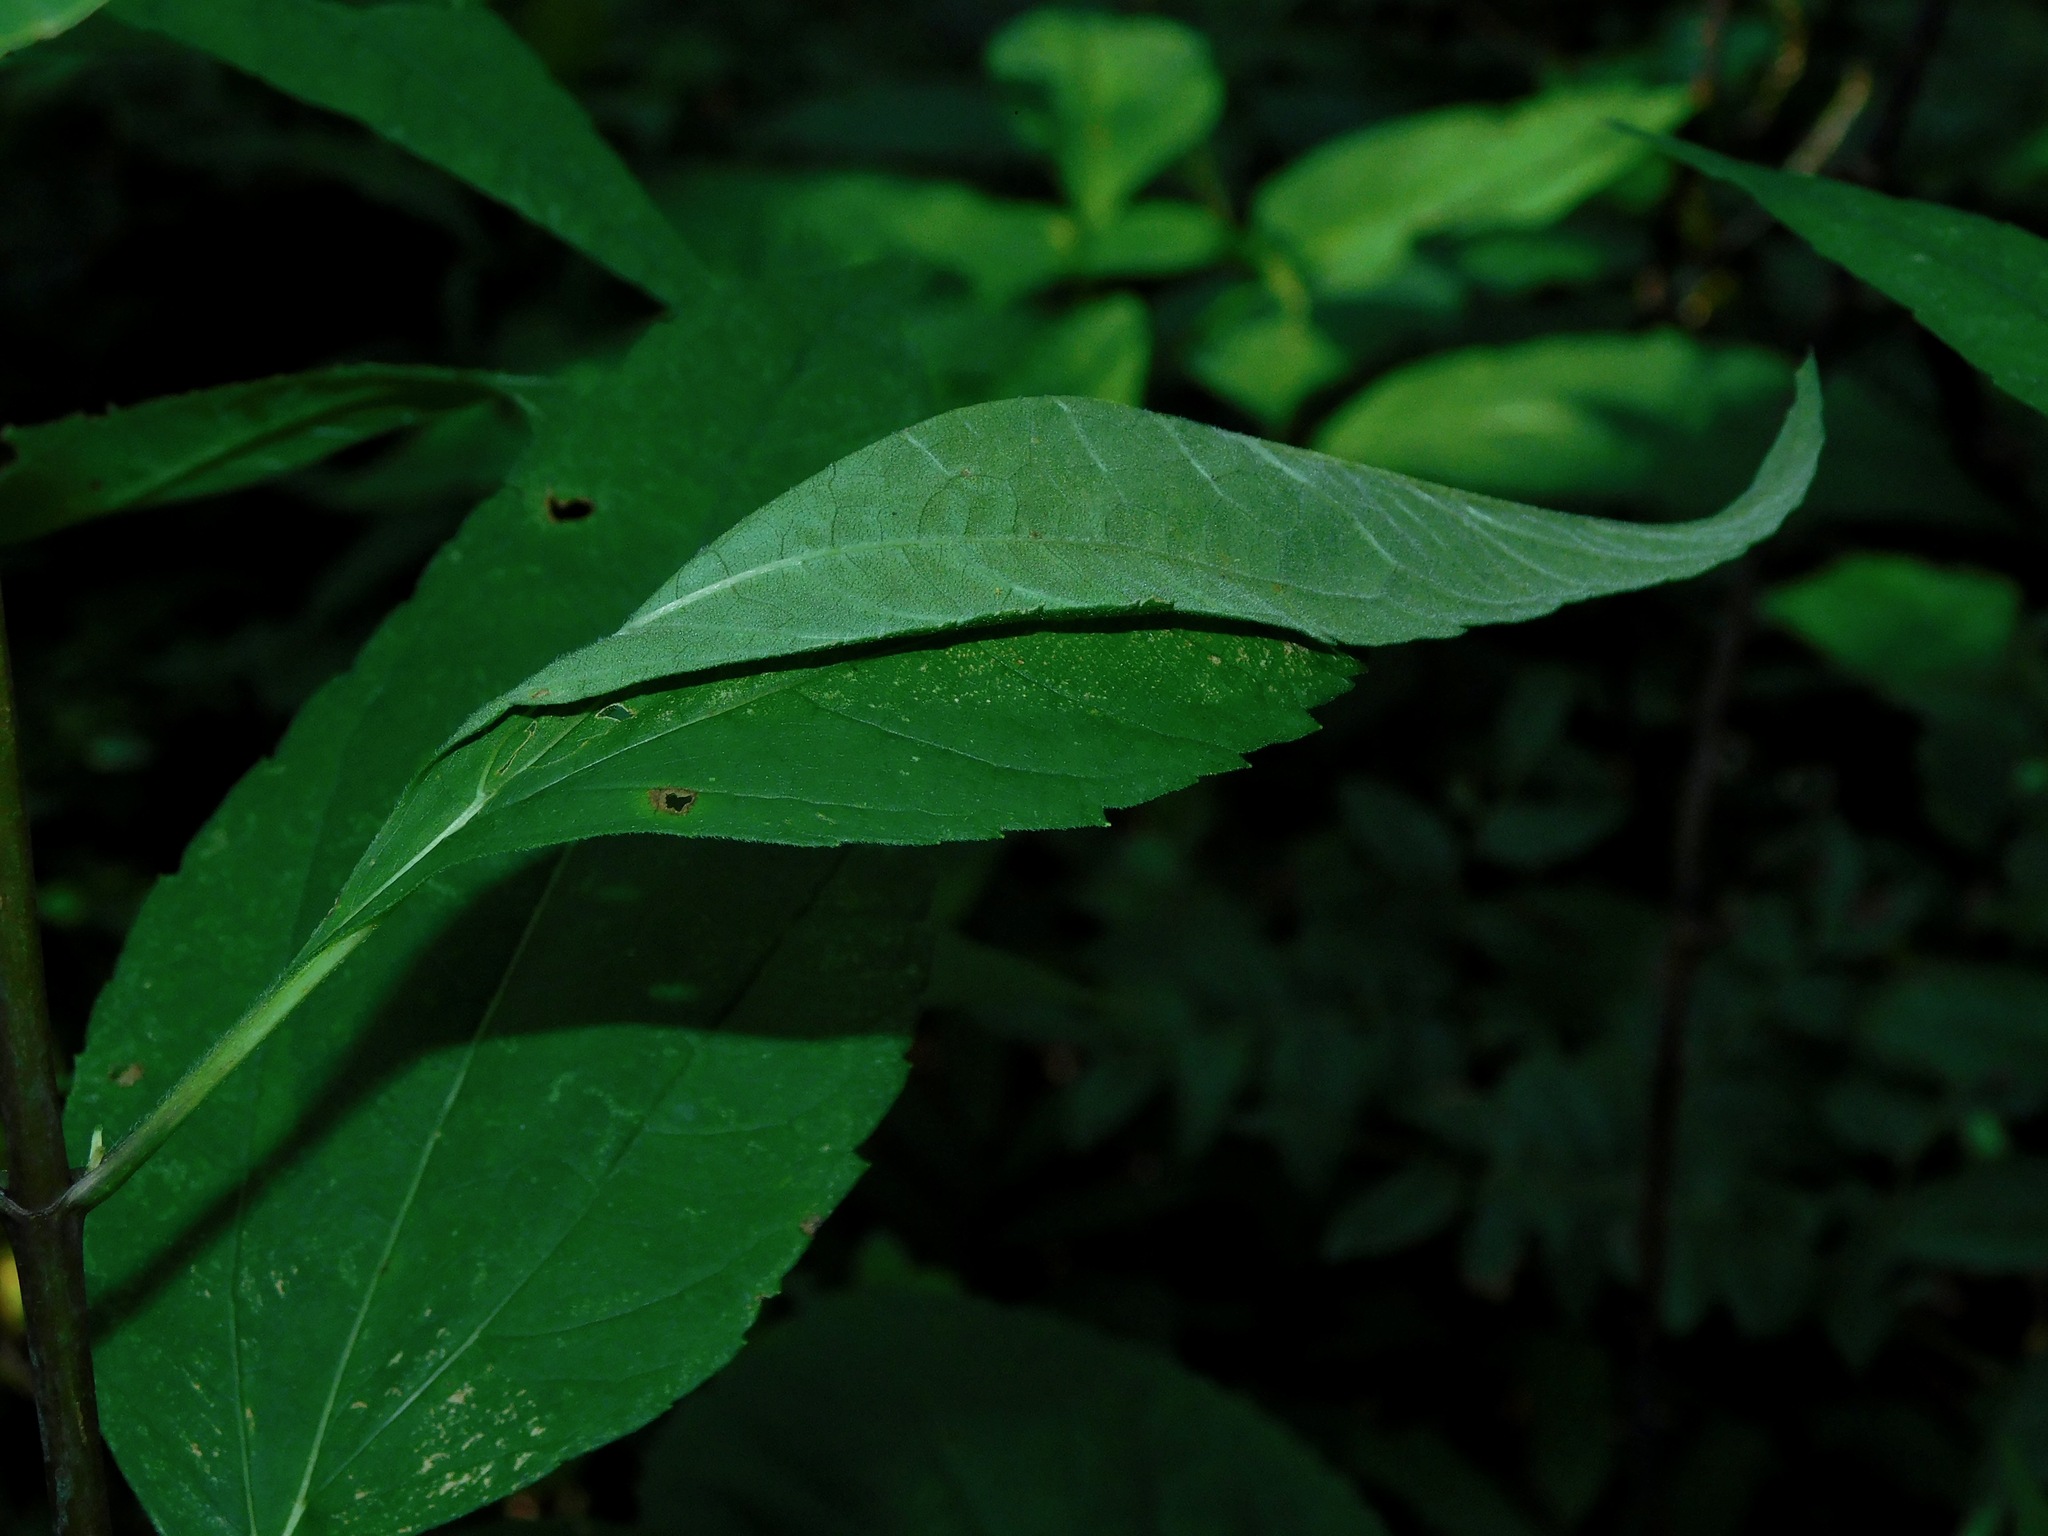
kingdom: Plantae
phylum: Tracheophyta
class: Magnoliopsida
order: Asterales
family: Asteraceae
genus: Helianthus
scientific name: Helianthus microcephalus
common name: Woodland sunflower
